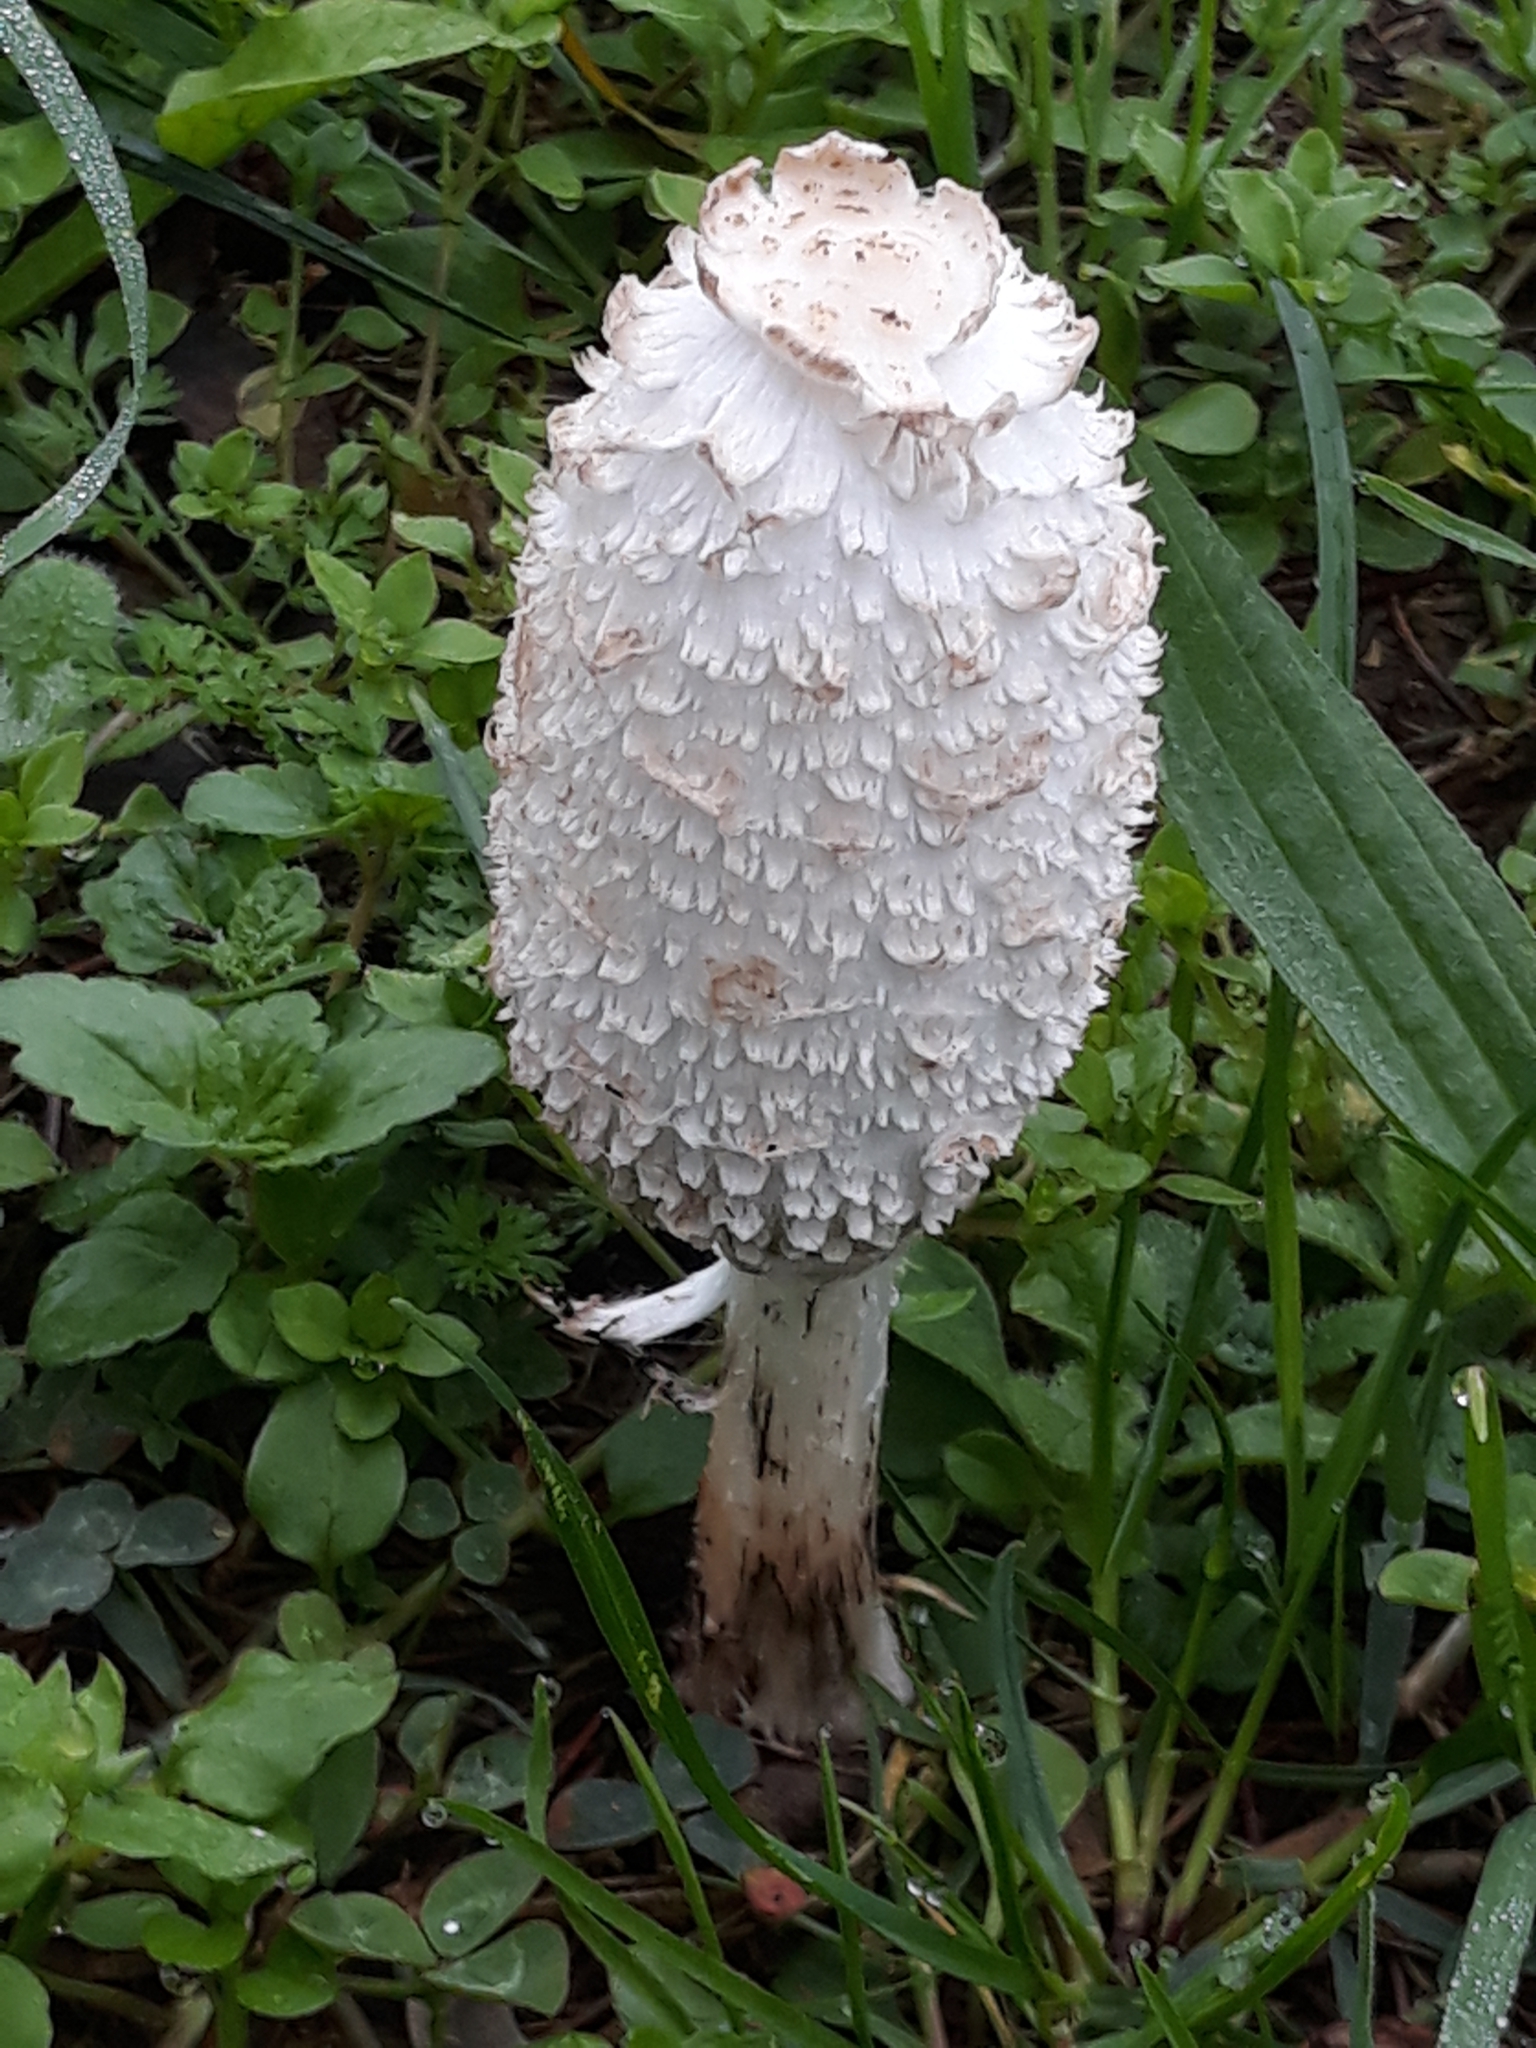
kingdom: Fungi
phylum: Basidiomycota
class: Agaricomycetes
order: Agaricales
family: Agaricaceae
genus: Coprinus
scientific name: Coprinus comatus
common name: Lawyer's wig
